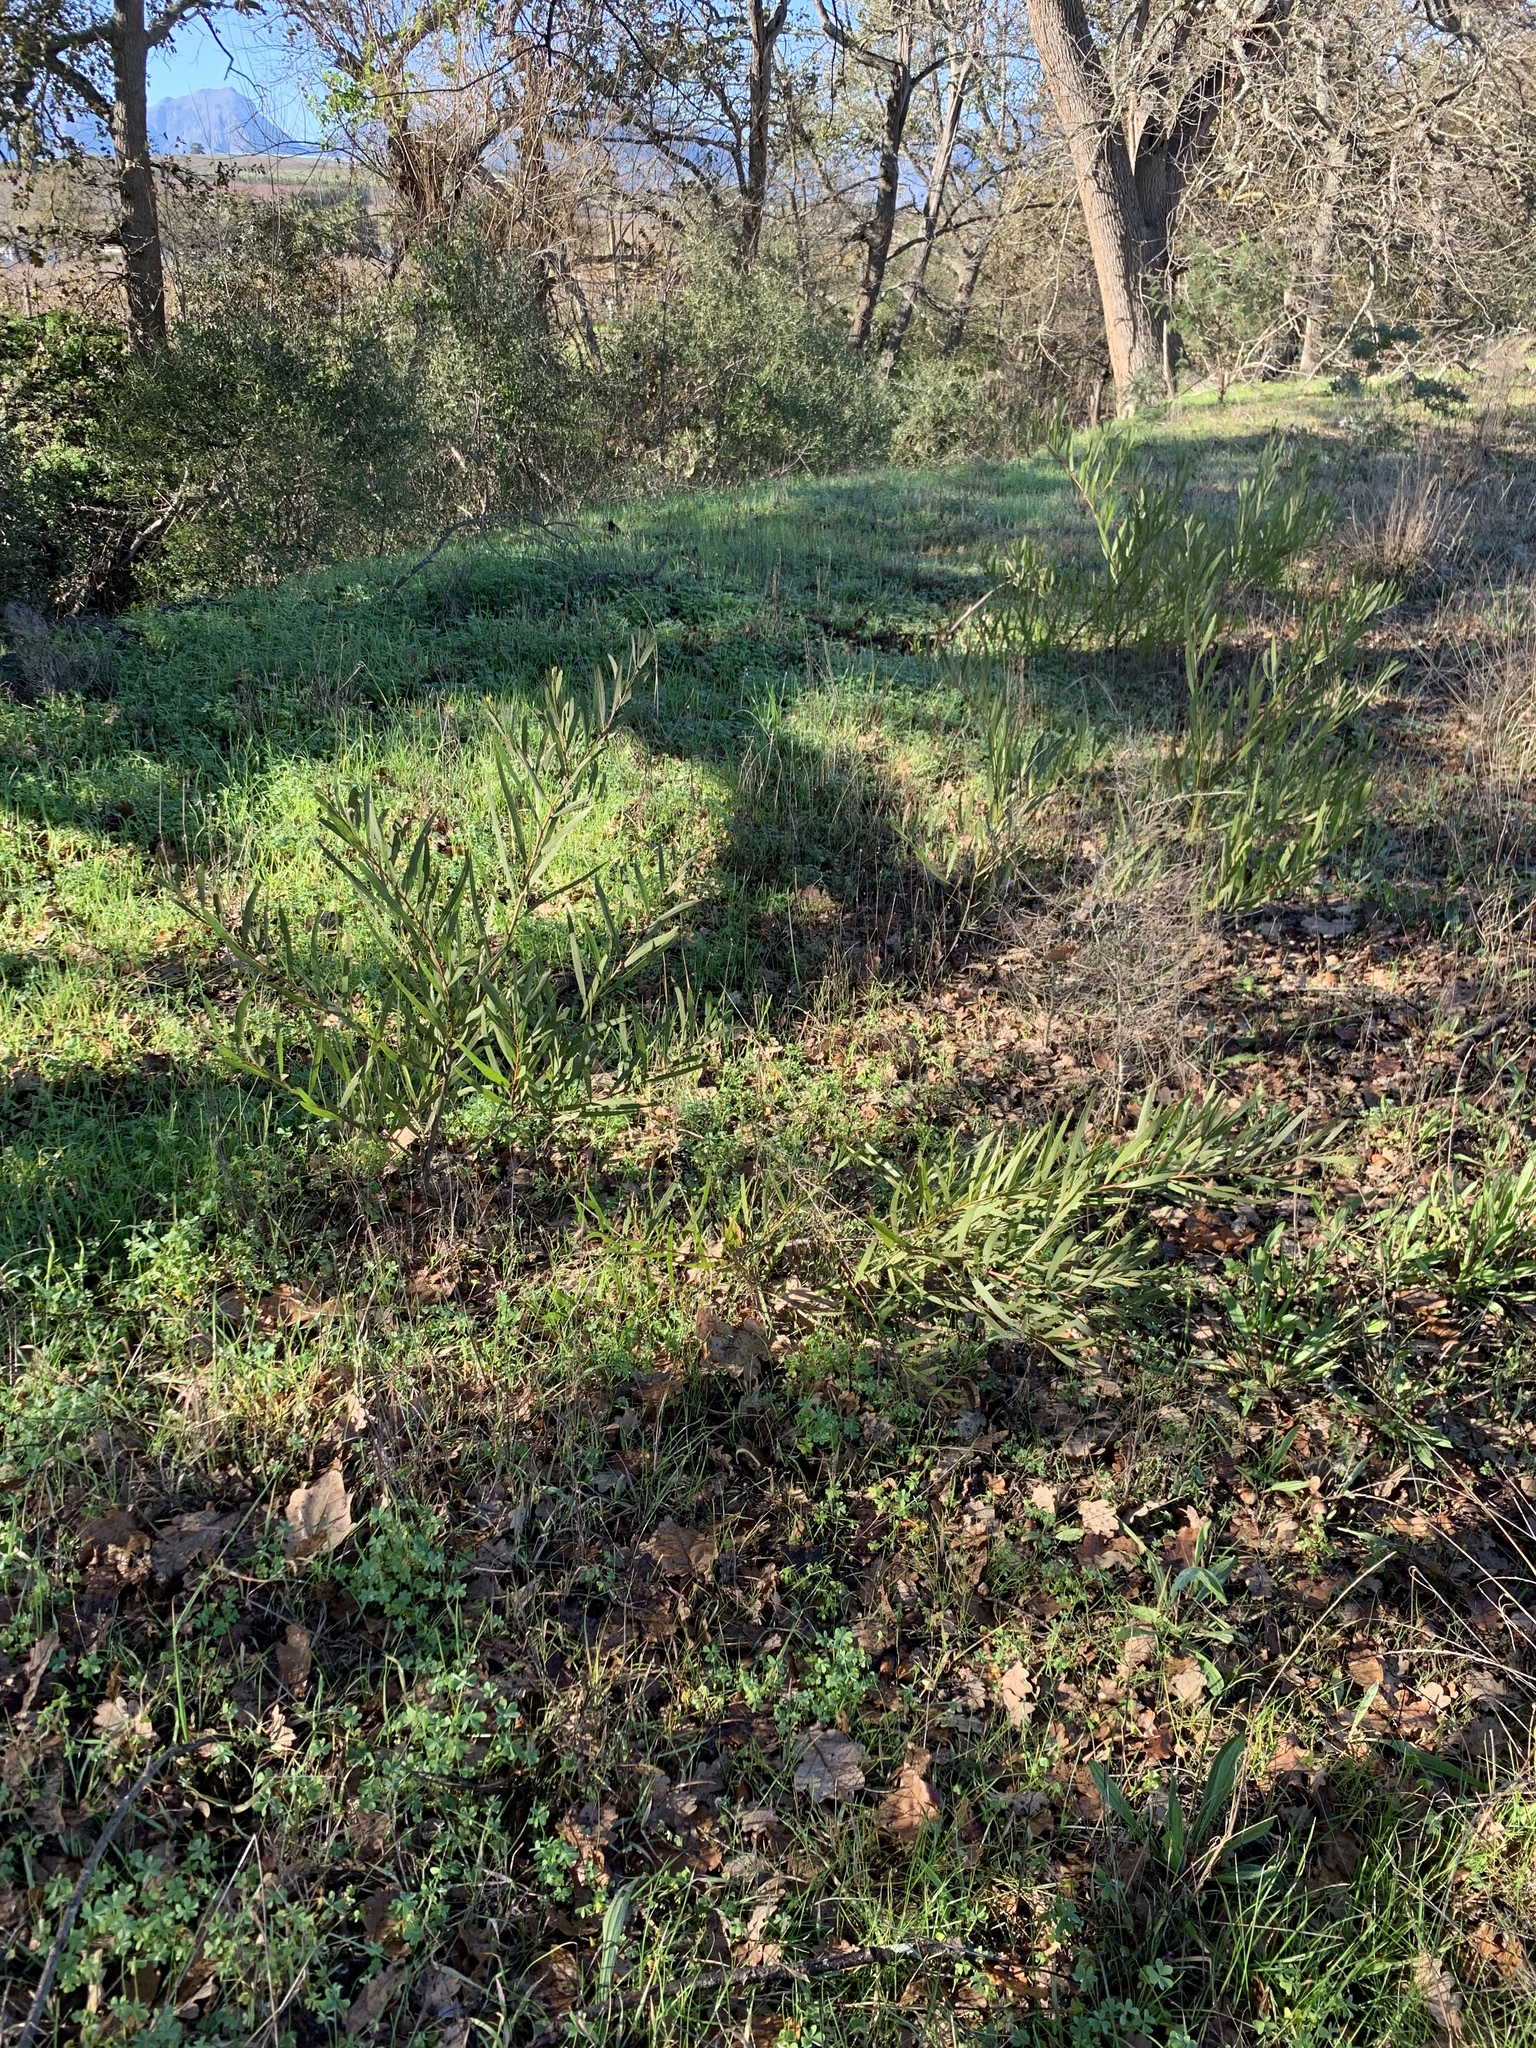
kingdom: Plantae
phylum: Tracheophyta
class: Magnoliopsida
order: Fabales
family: Fabaceae
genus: Acacia
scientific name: Acacia longifolia
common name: Sydney golden wattle
